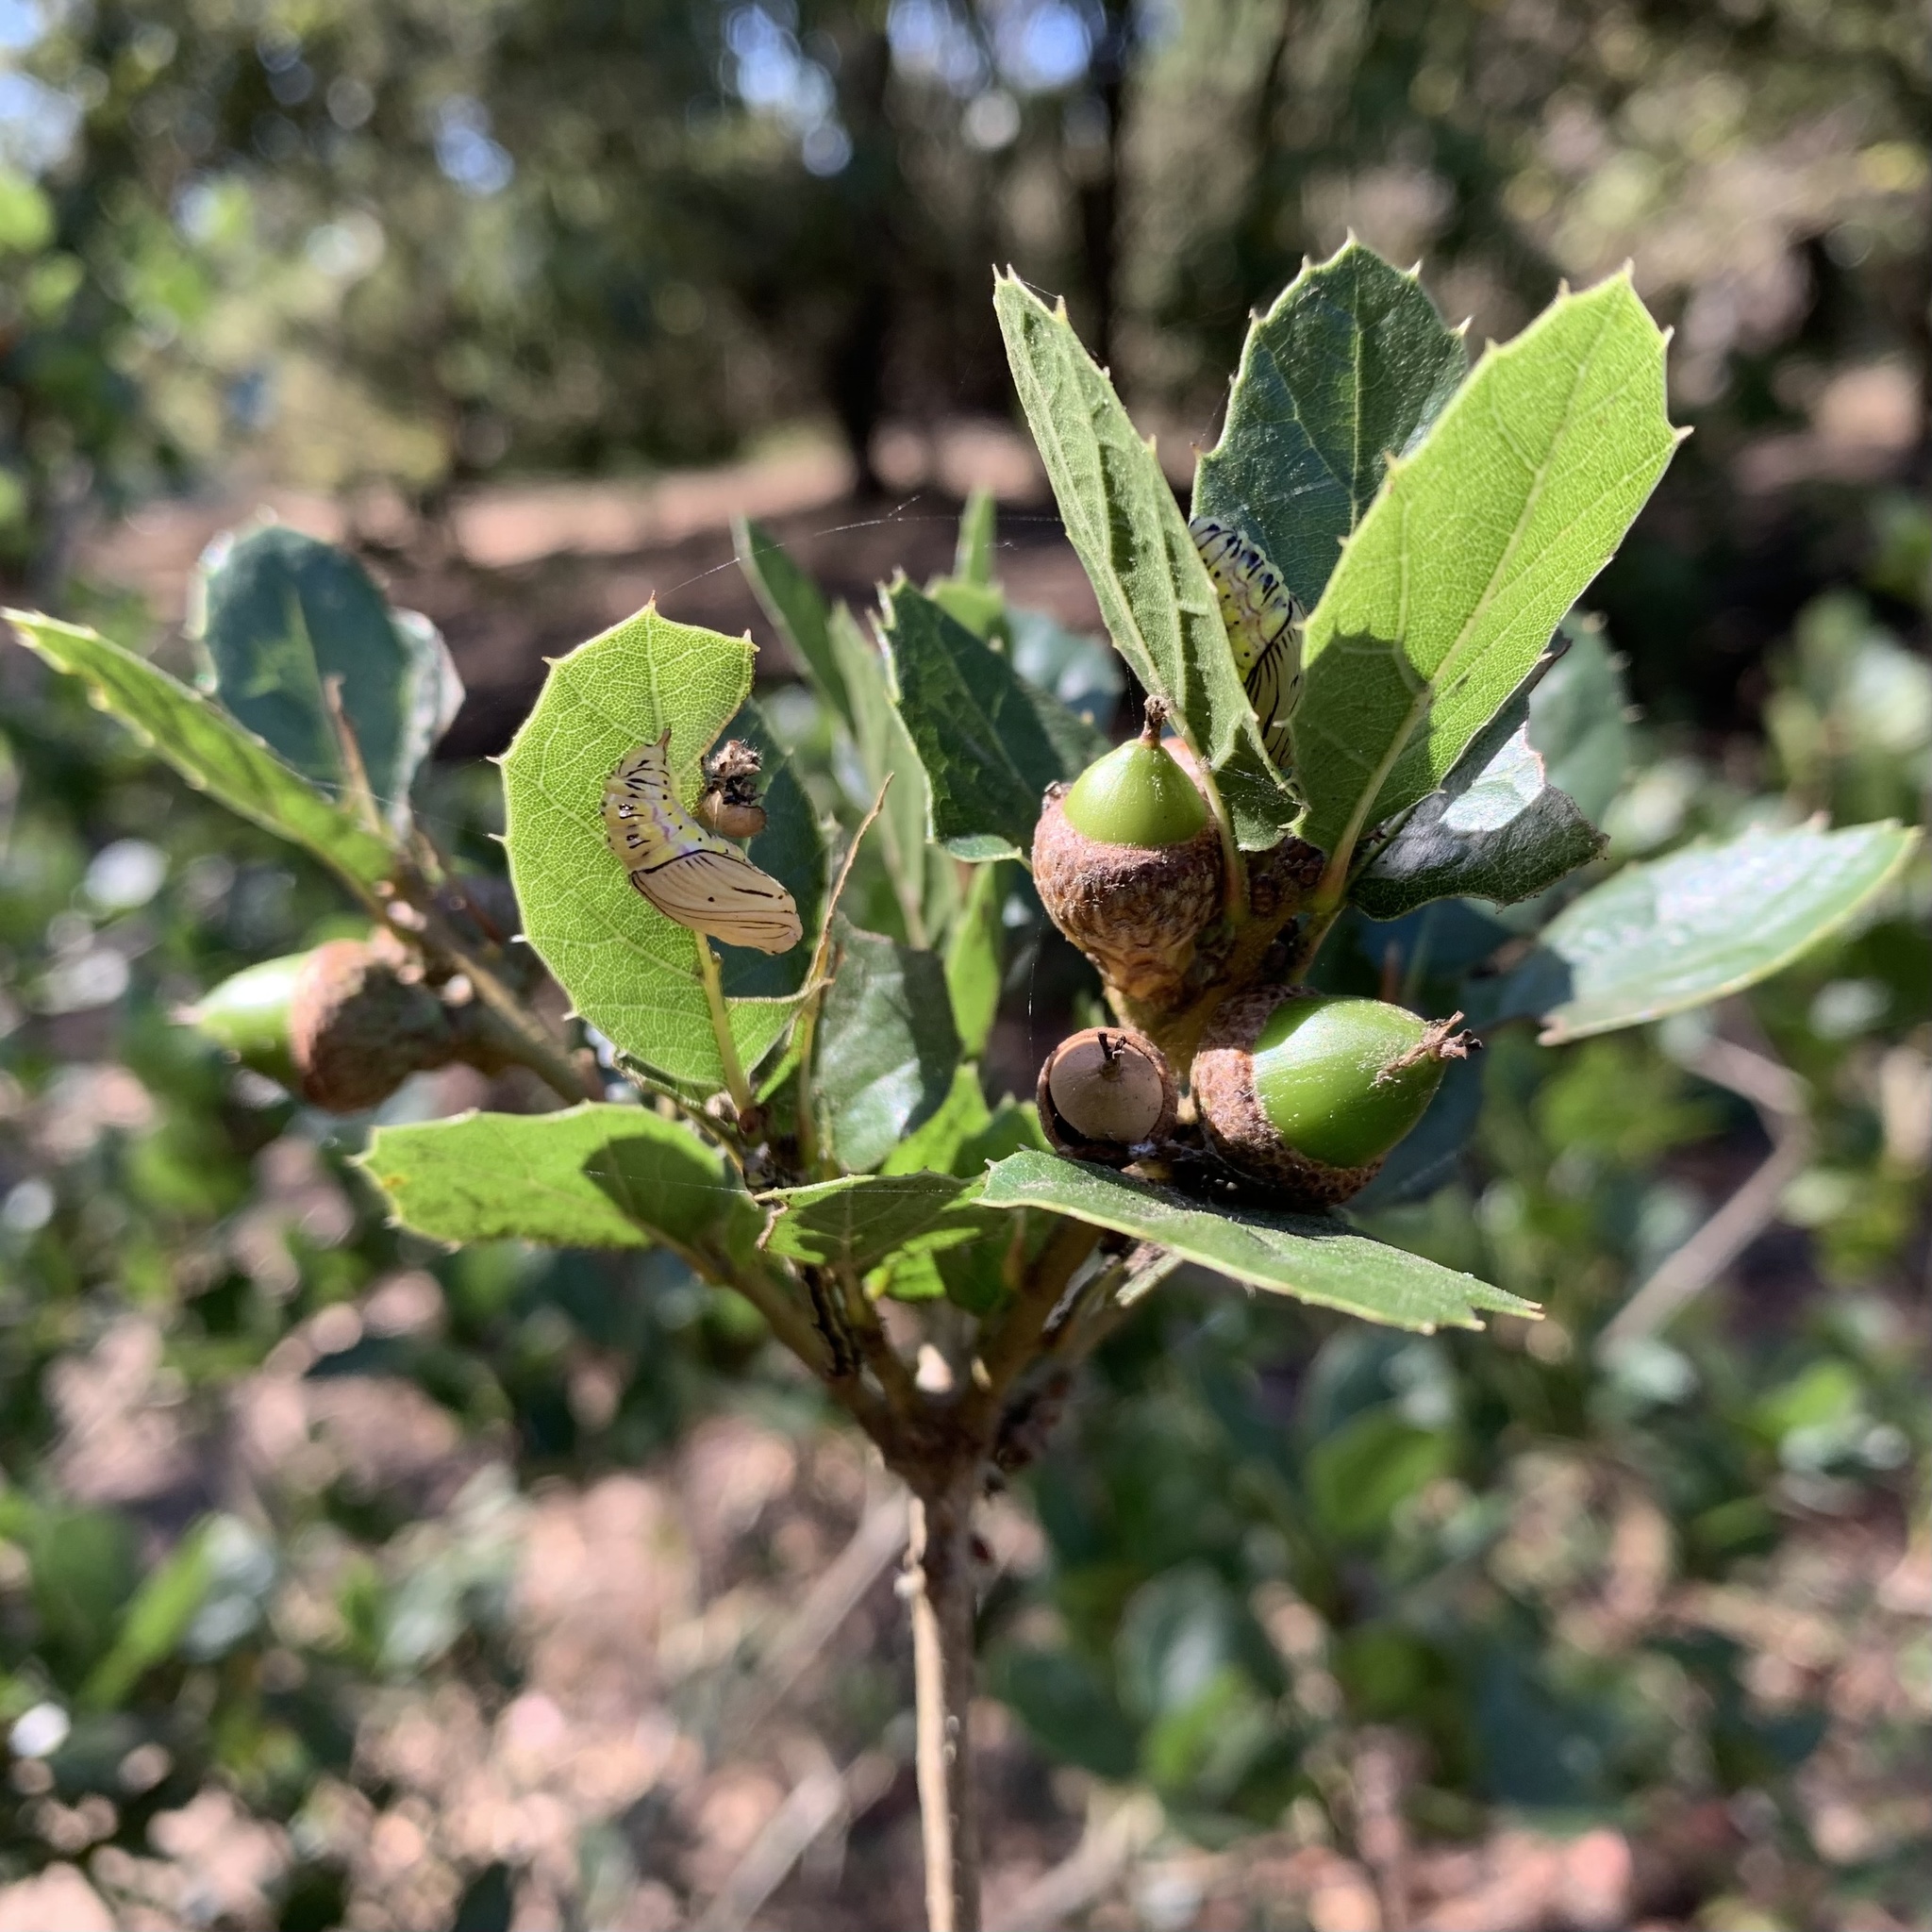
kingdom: Animalia
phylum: Arthropoda
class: Insecta
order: Lepidoptera
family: Notodontidae
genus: Phryganidia
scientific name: Phryganidia californica
